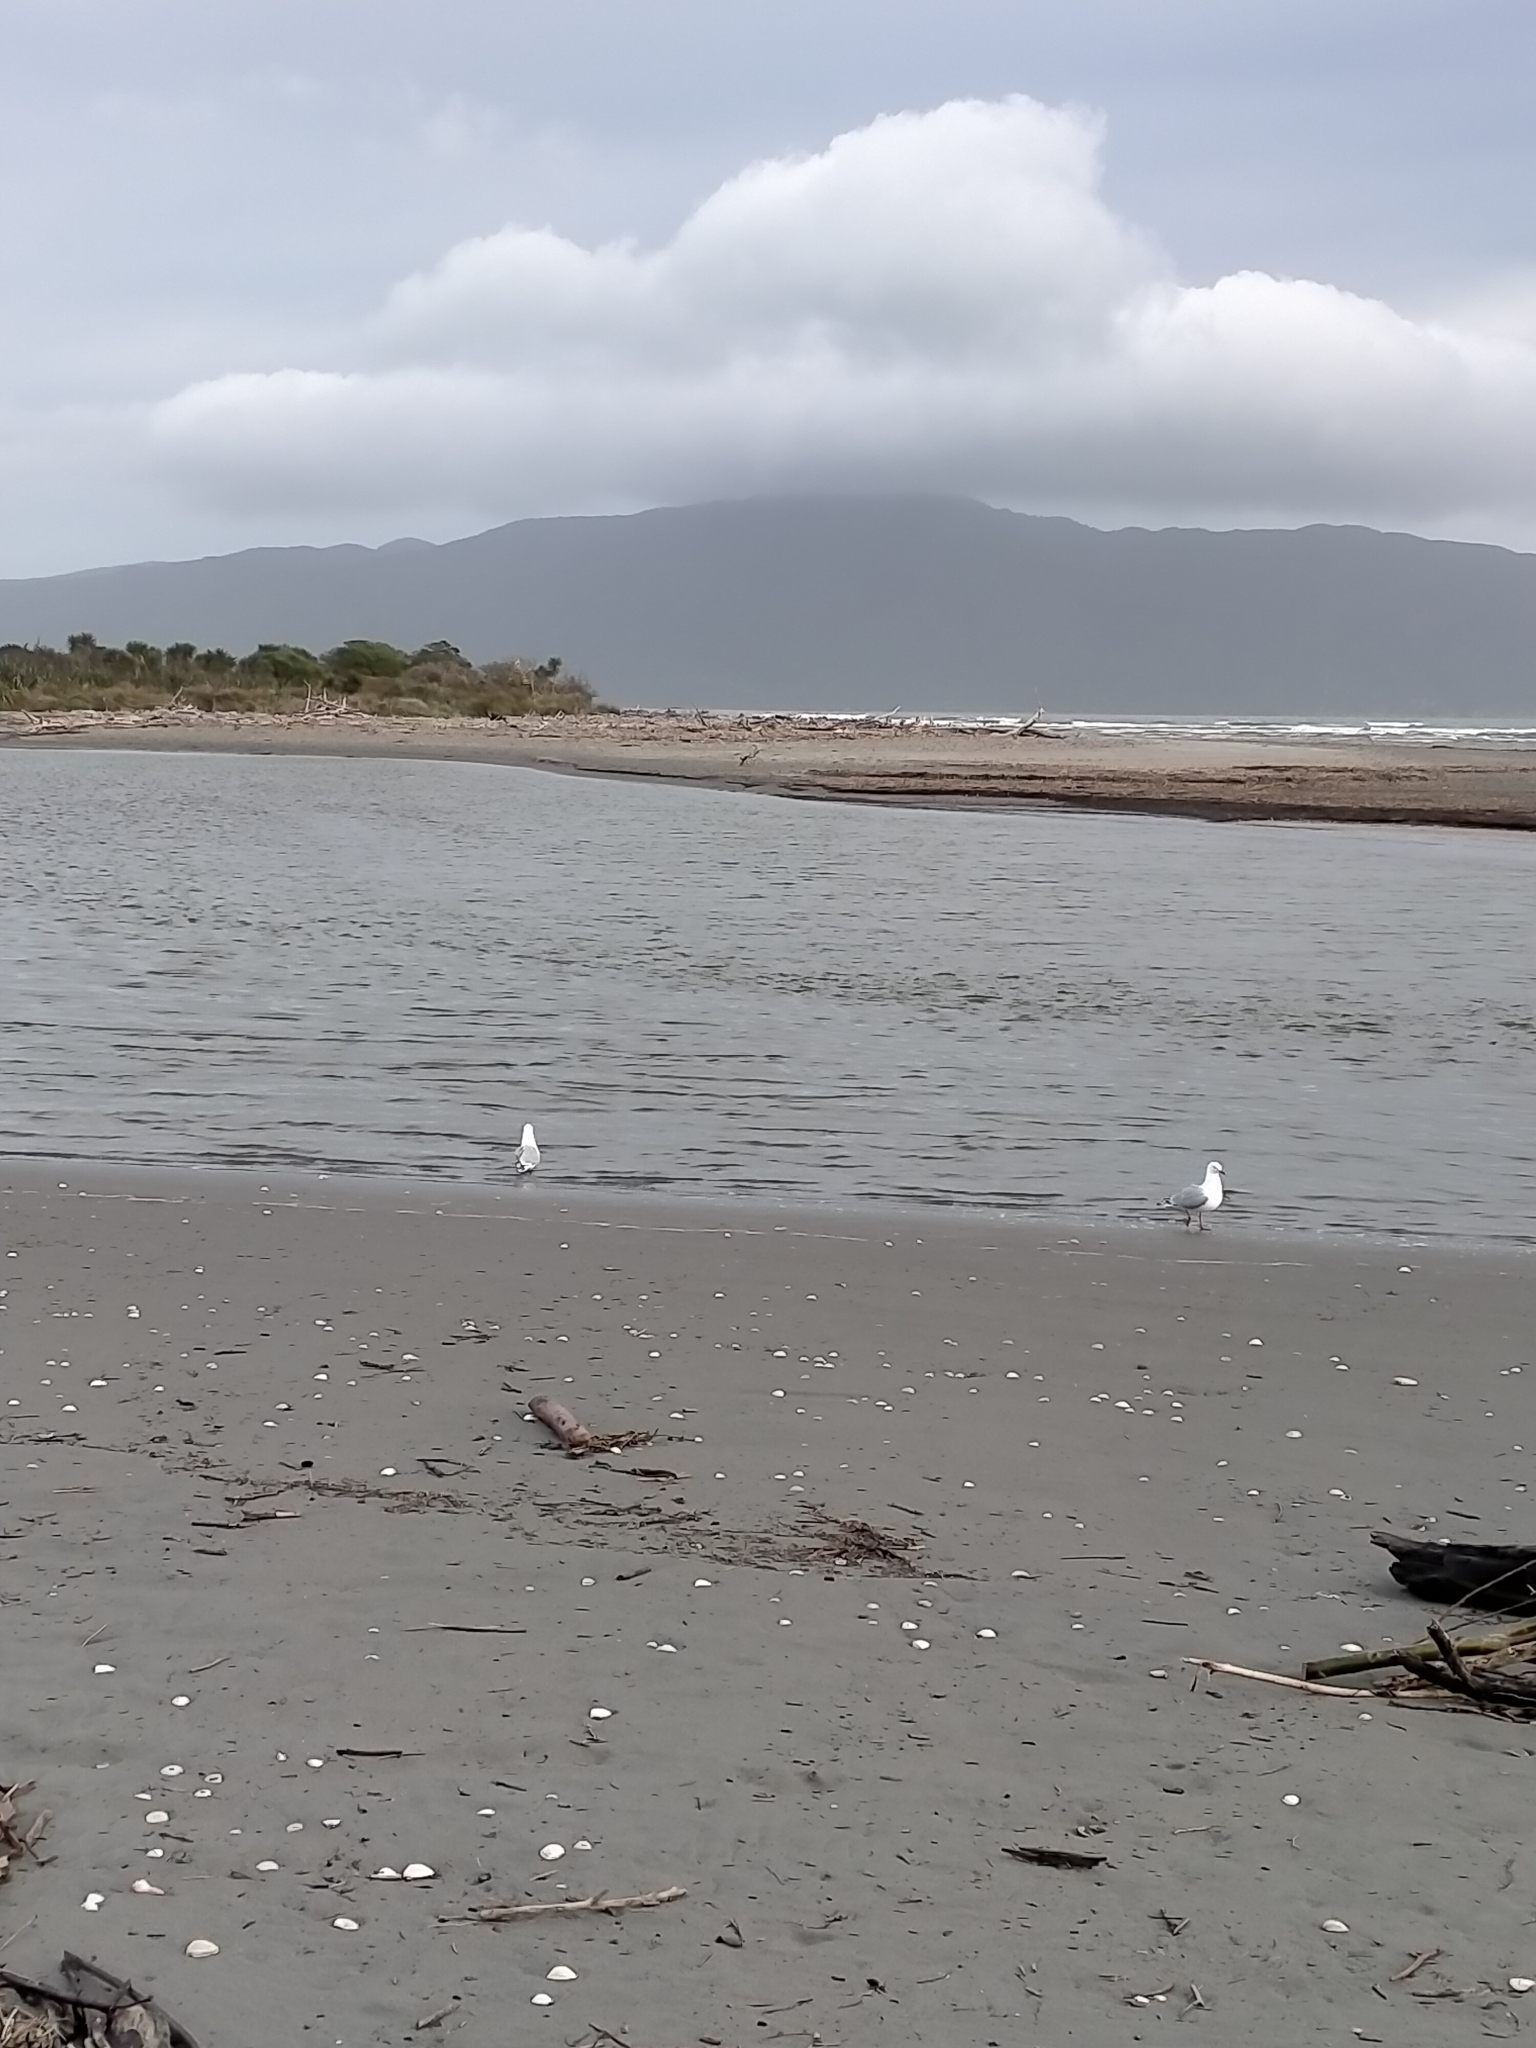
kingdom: Animalia
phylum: Chordata
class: Aves
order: Charadriiformes
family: Laridae
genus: Chroicocephalus
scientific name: Chroicocephalus novaehollandiae
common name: Silver gull
